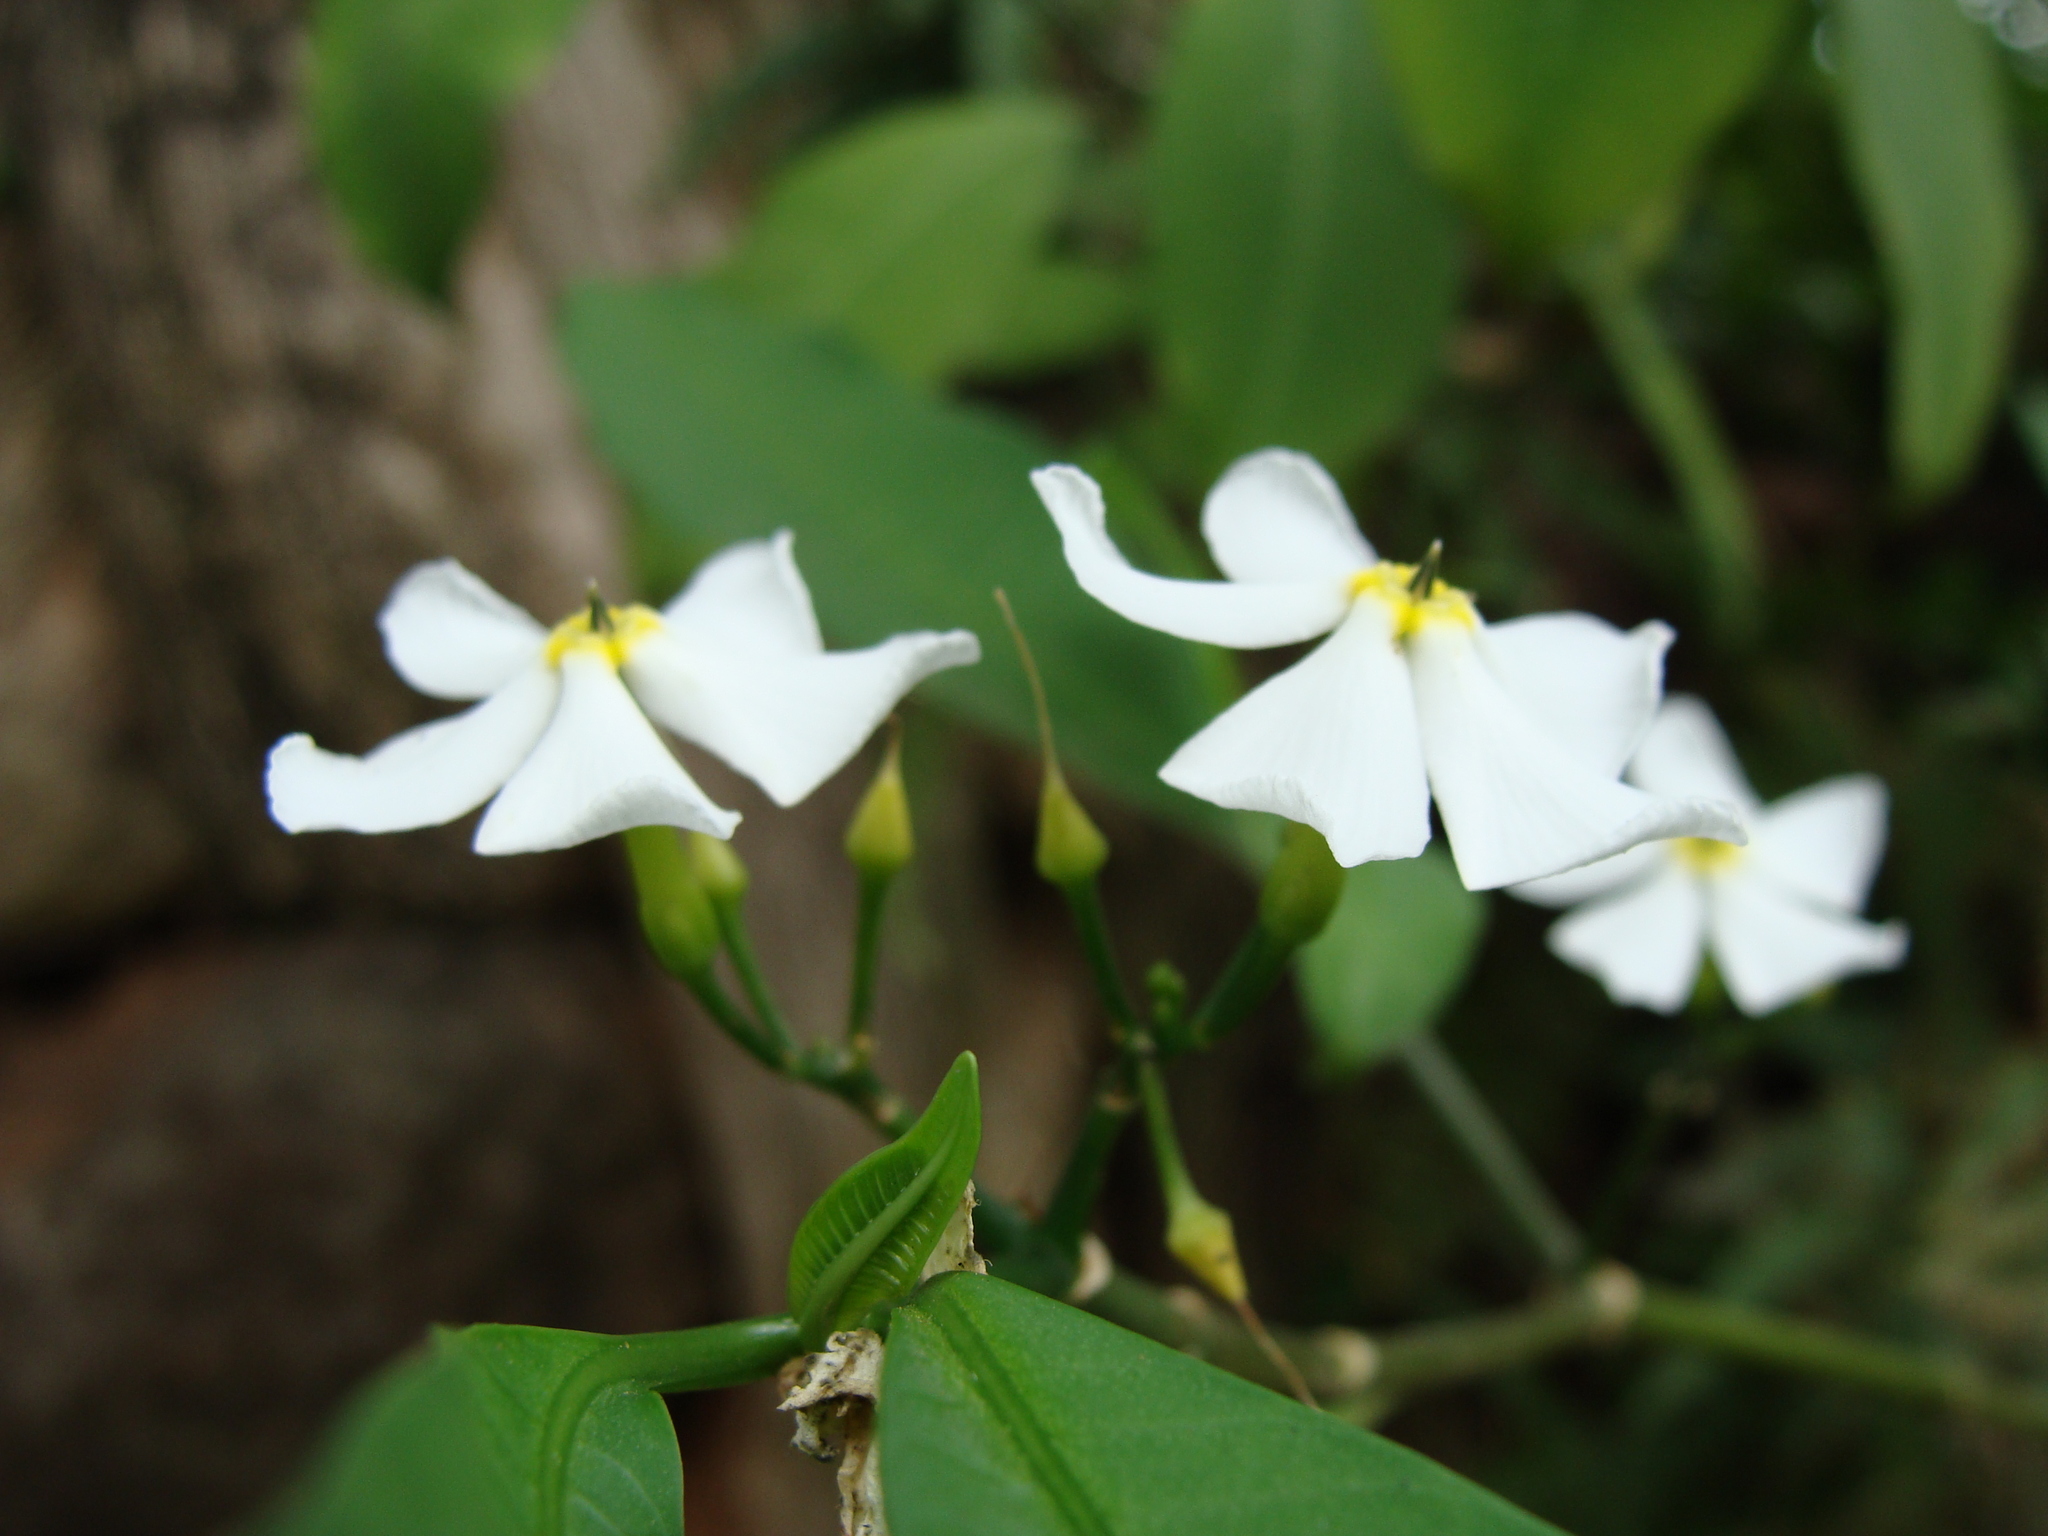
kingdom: Plantae
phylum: Tracheophyta
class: Magnoliopsida
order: Gentianales
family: Apocynaceae
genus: Tabernaemontana
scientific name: Tabernaemontana amygdalifolia
